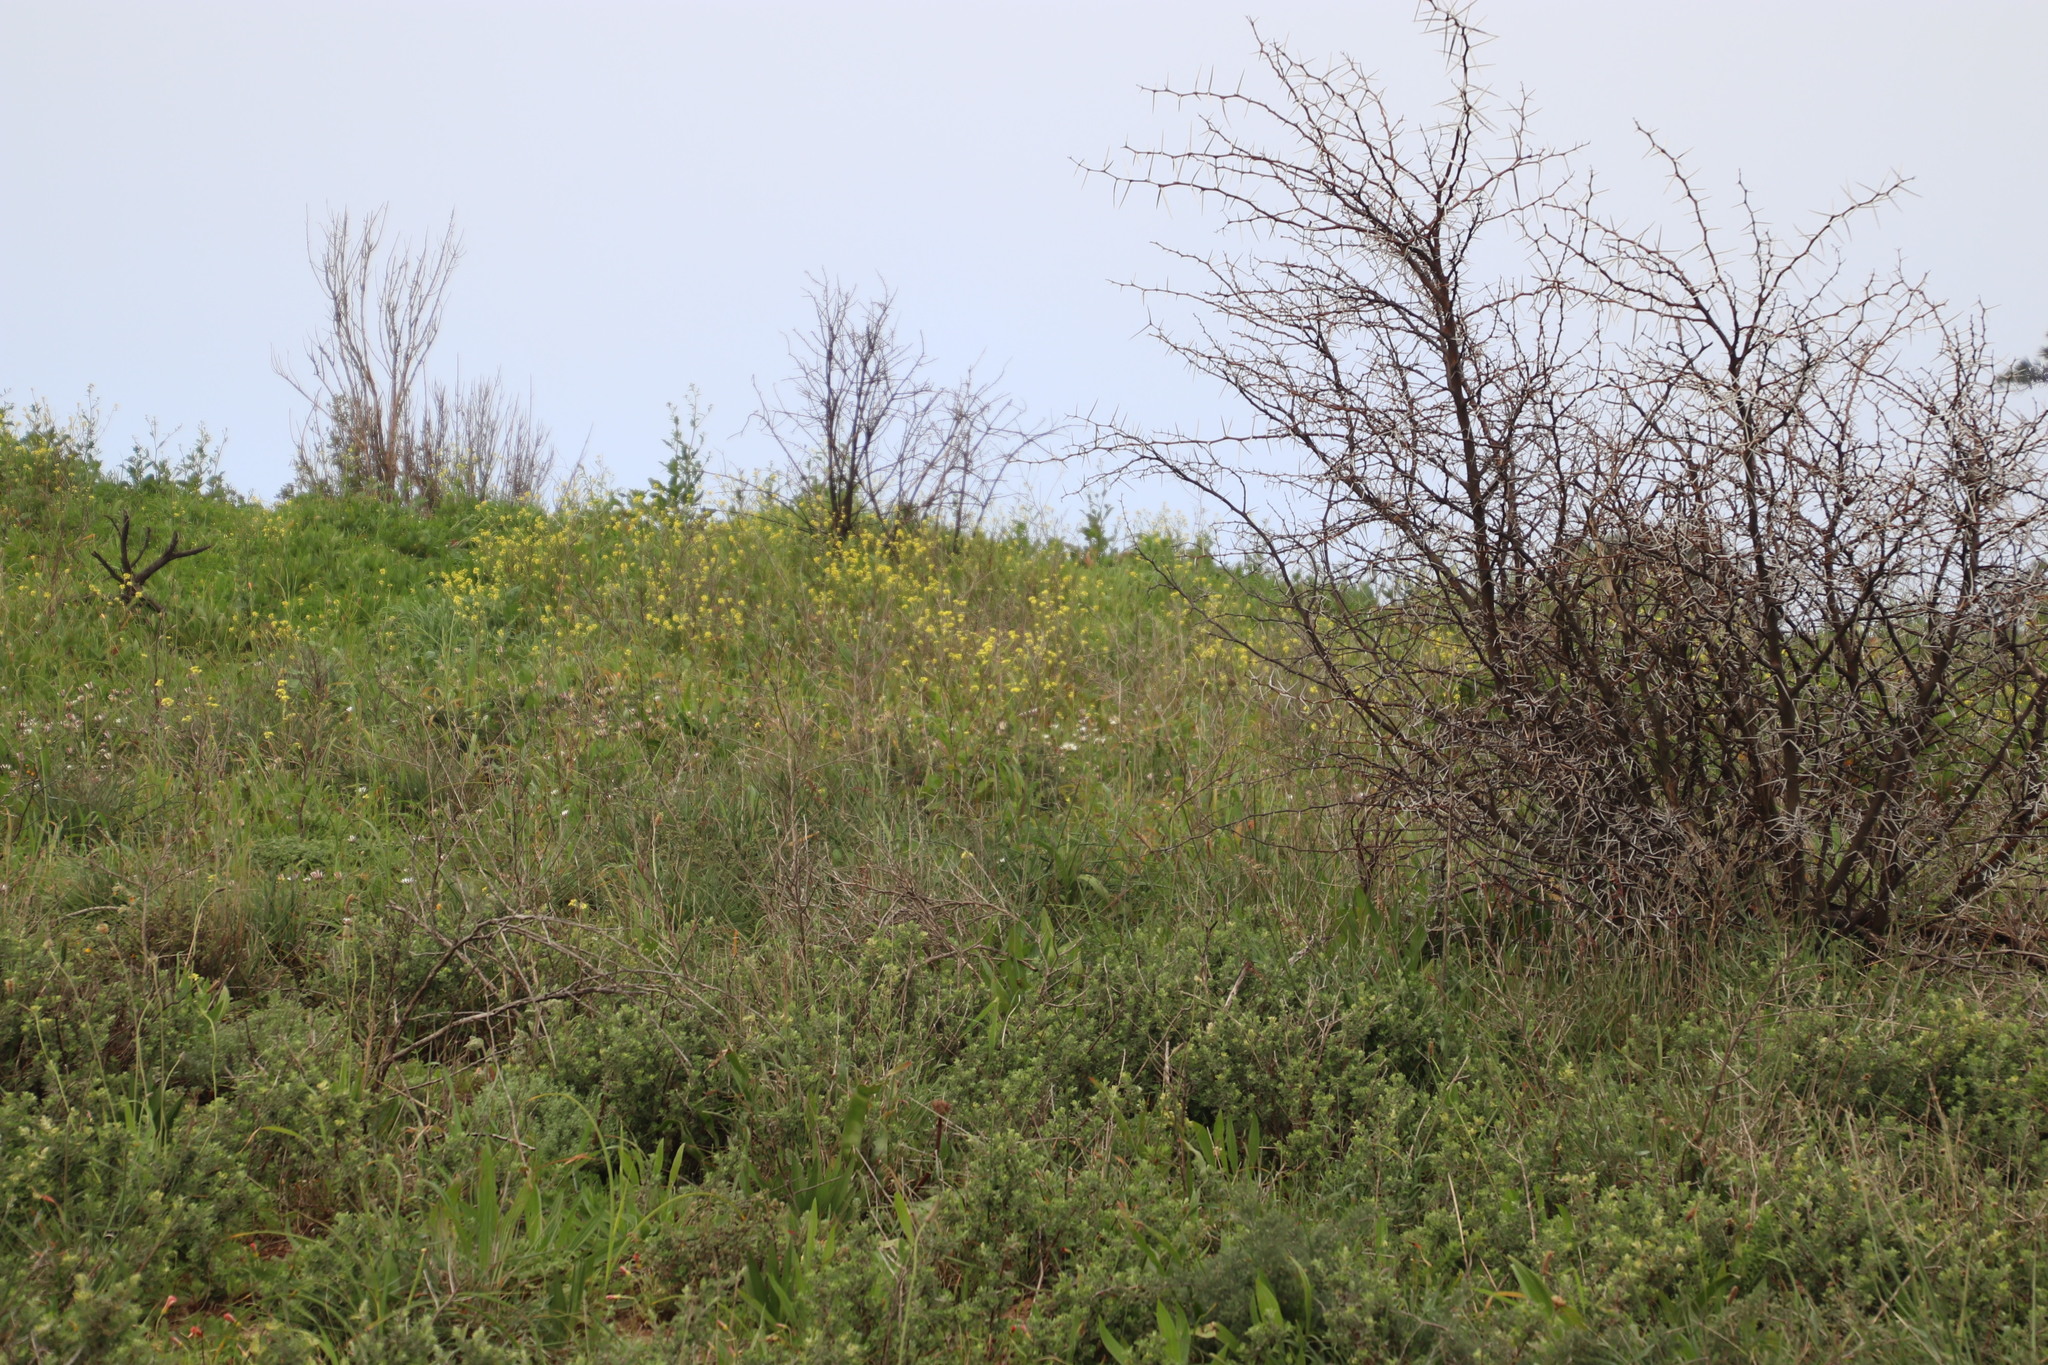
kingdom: Plantae
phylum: Tracheophyta
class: Magnoliopsida
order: Brassicales
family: Brassicaceae
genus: Rapistrum
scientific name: Rapistrum rugosum
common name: Annual bastardcabbage
